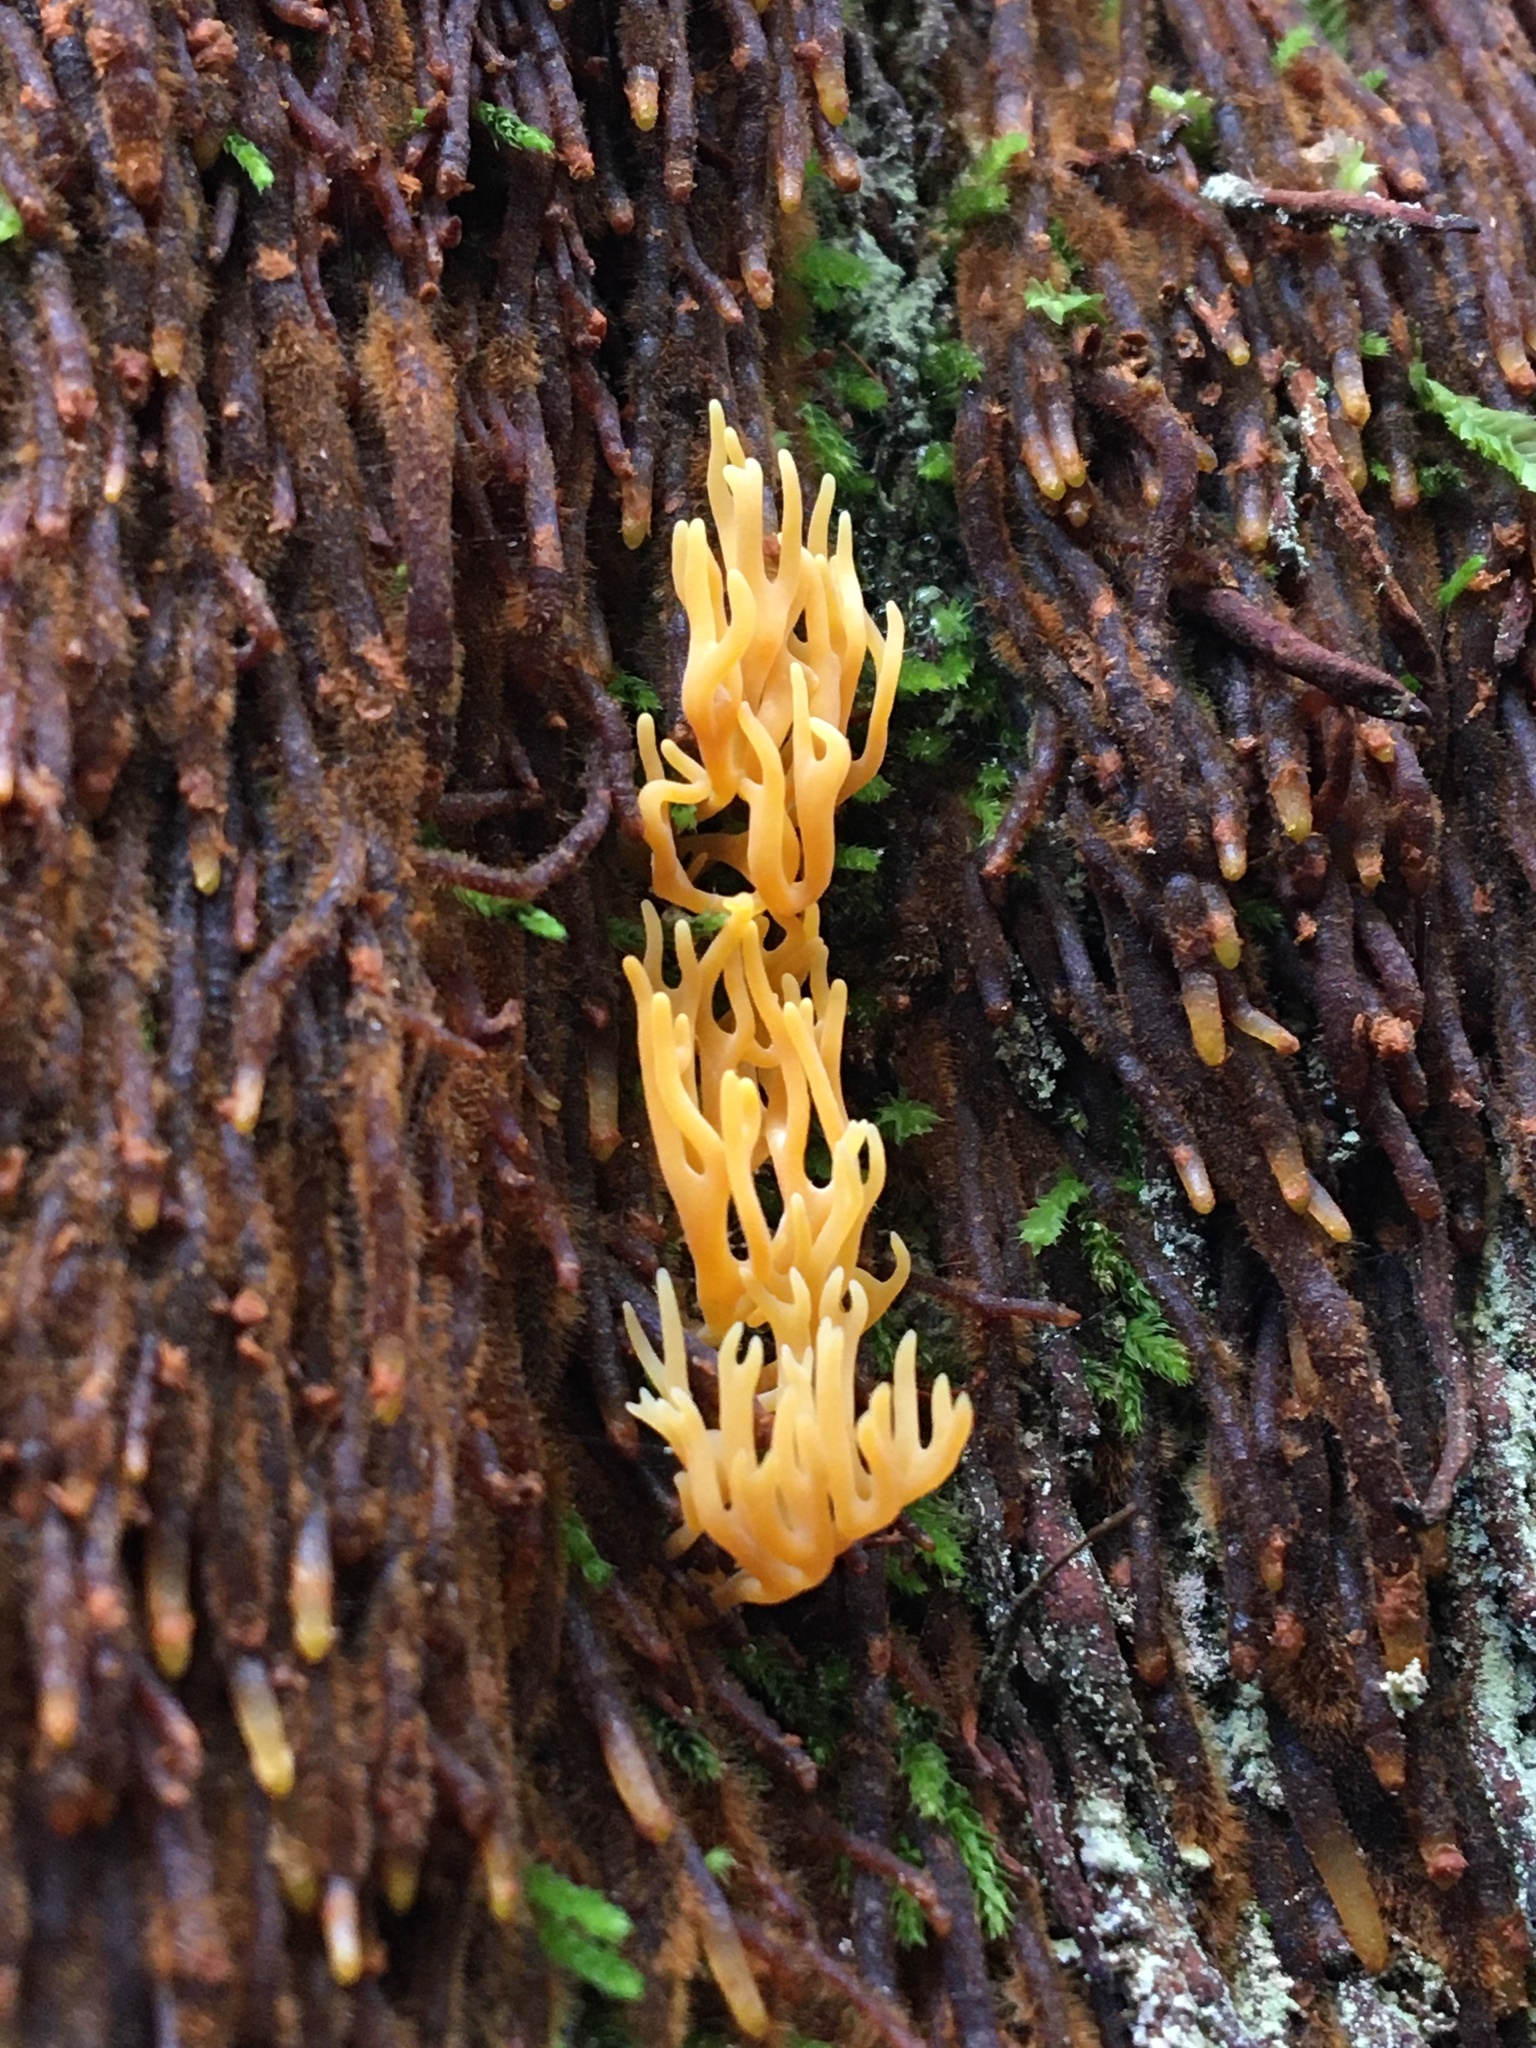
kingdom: Fungi
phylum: Basidiomycota
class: Agaricomycetes
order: Agaricales
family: Clavariaceae
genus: Ramariopsis
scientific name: Ramariopsis crocea
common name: Orange coral
